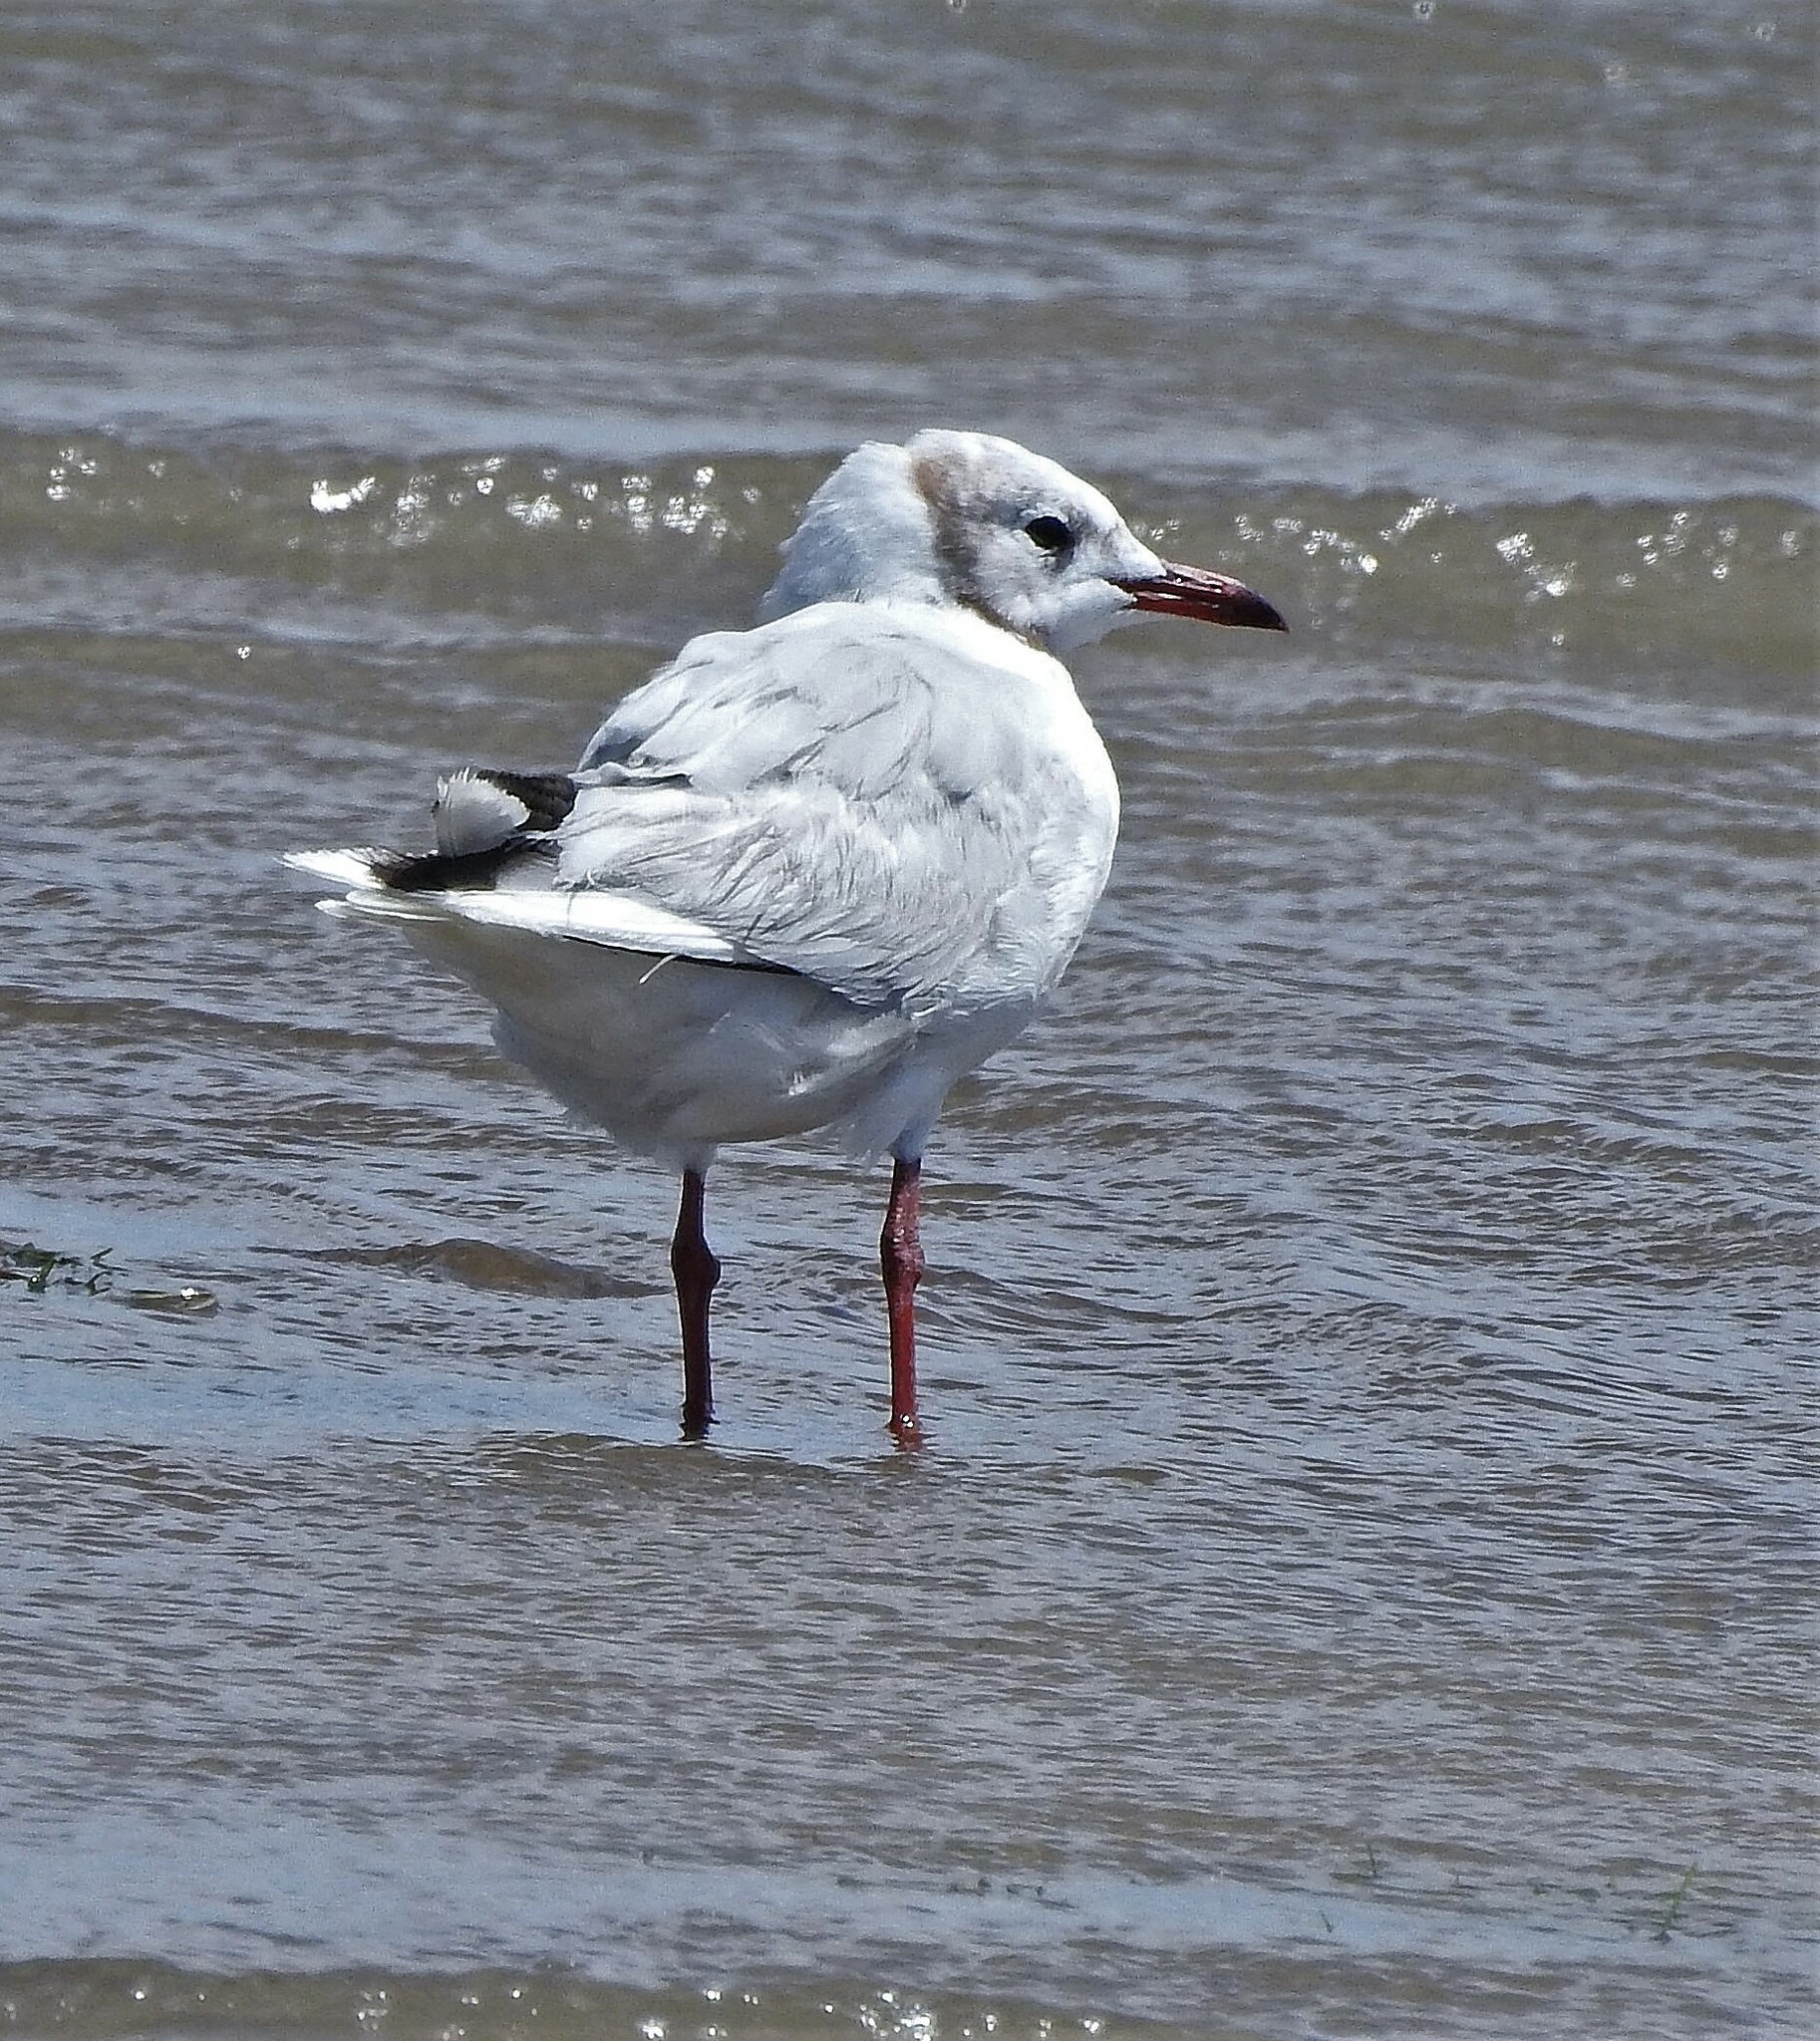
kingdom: Animalia
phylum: Chordata
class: Aves
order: Charadriiformes
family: Laridae
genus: Chroicocephalus
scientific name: Chroicocephalus maculipennis
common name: Brown-hooded gull
